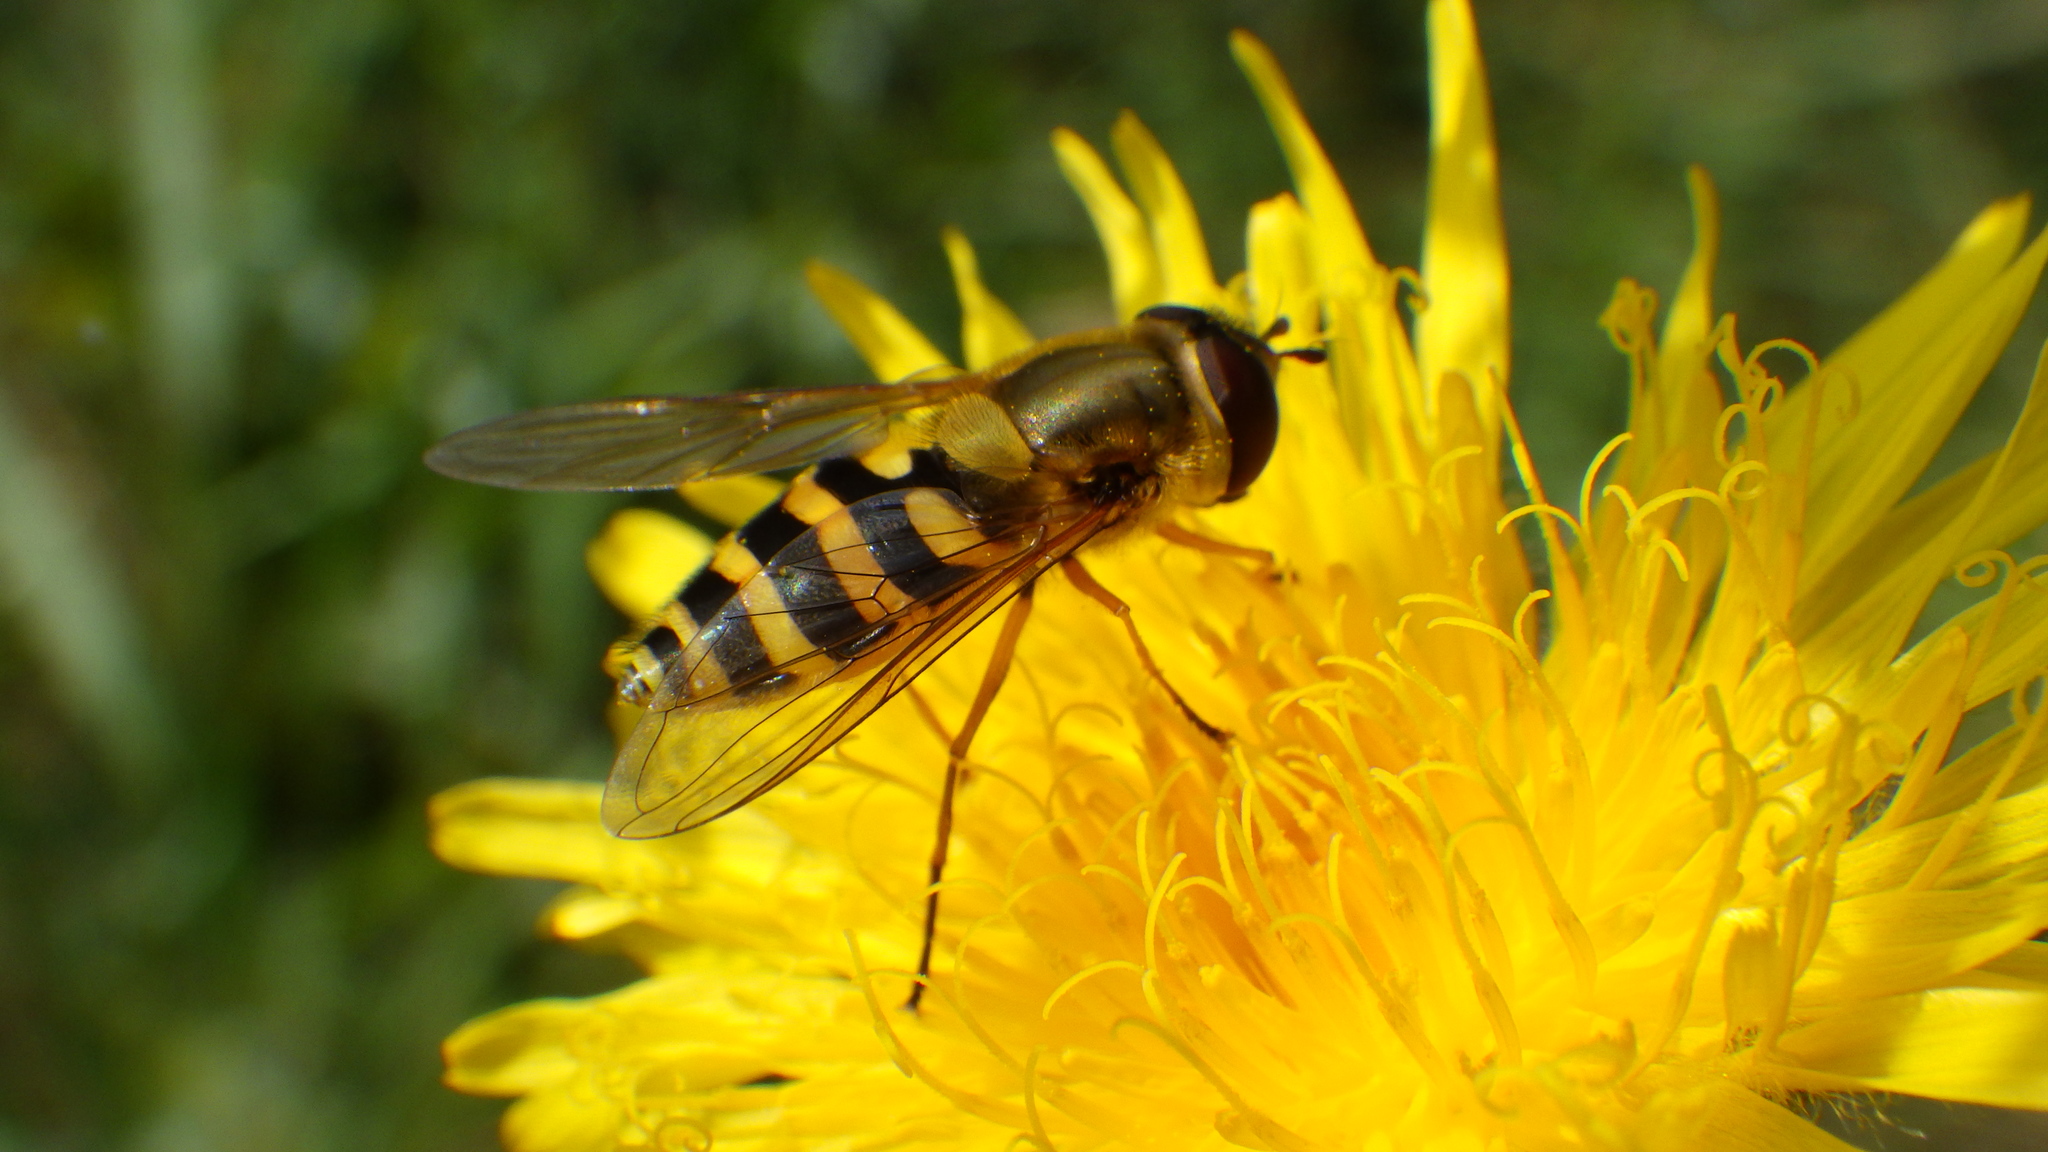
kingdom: Animalia
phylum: Arthropoda
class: Insecta
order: Diptera
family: Syrphidae
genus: Syrphus
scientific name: Syrphus ribesii
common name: Common flower fly
